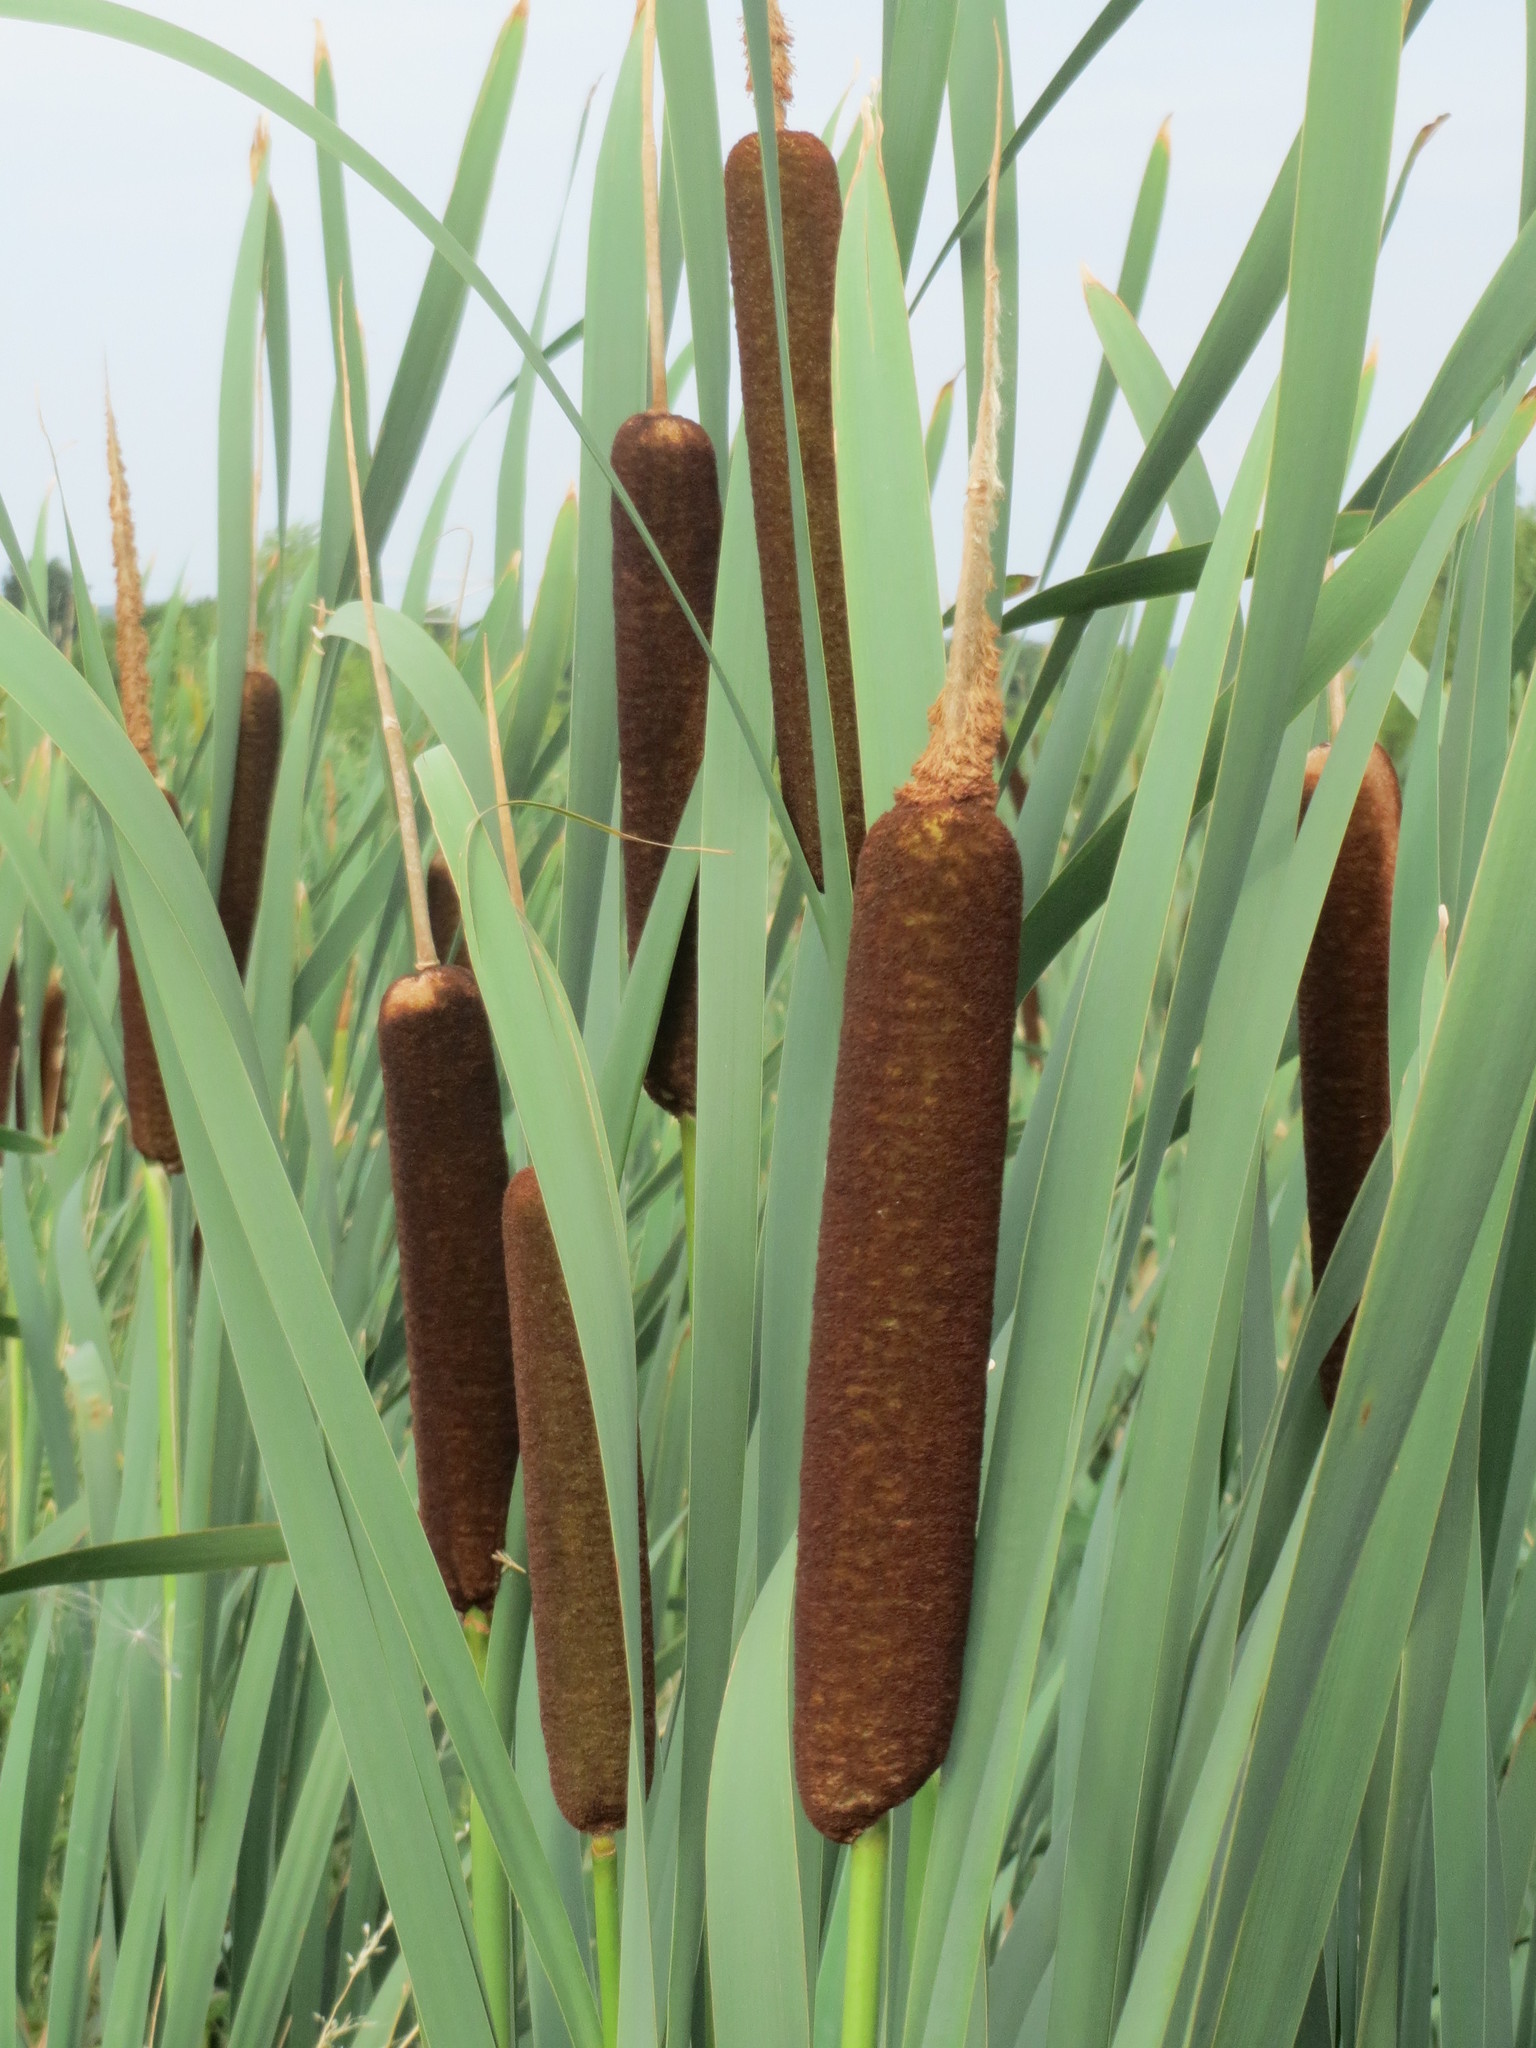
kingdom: Plantae
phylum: Tracheophyta
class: Liliopsida
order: Poales
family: Typhaceae
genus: Typha
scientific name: Typha latifolia
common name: Broadleaf cattail
